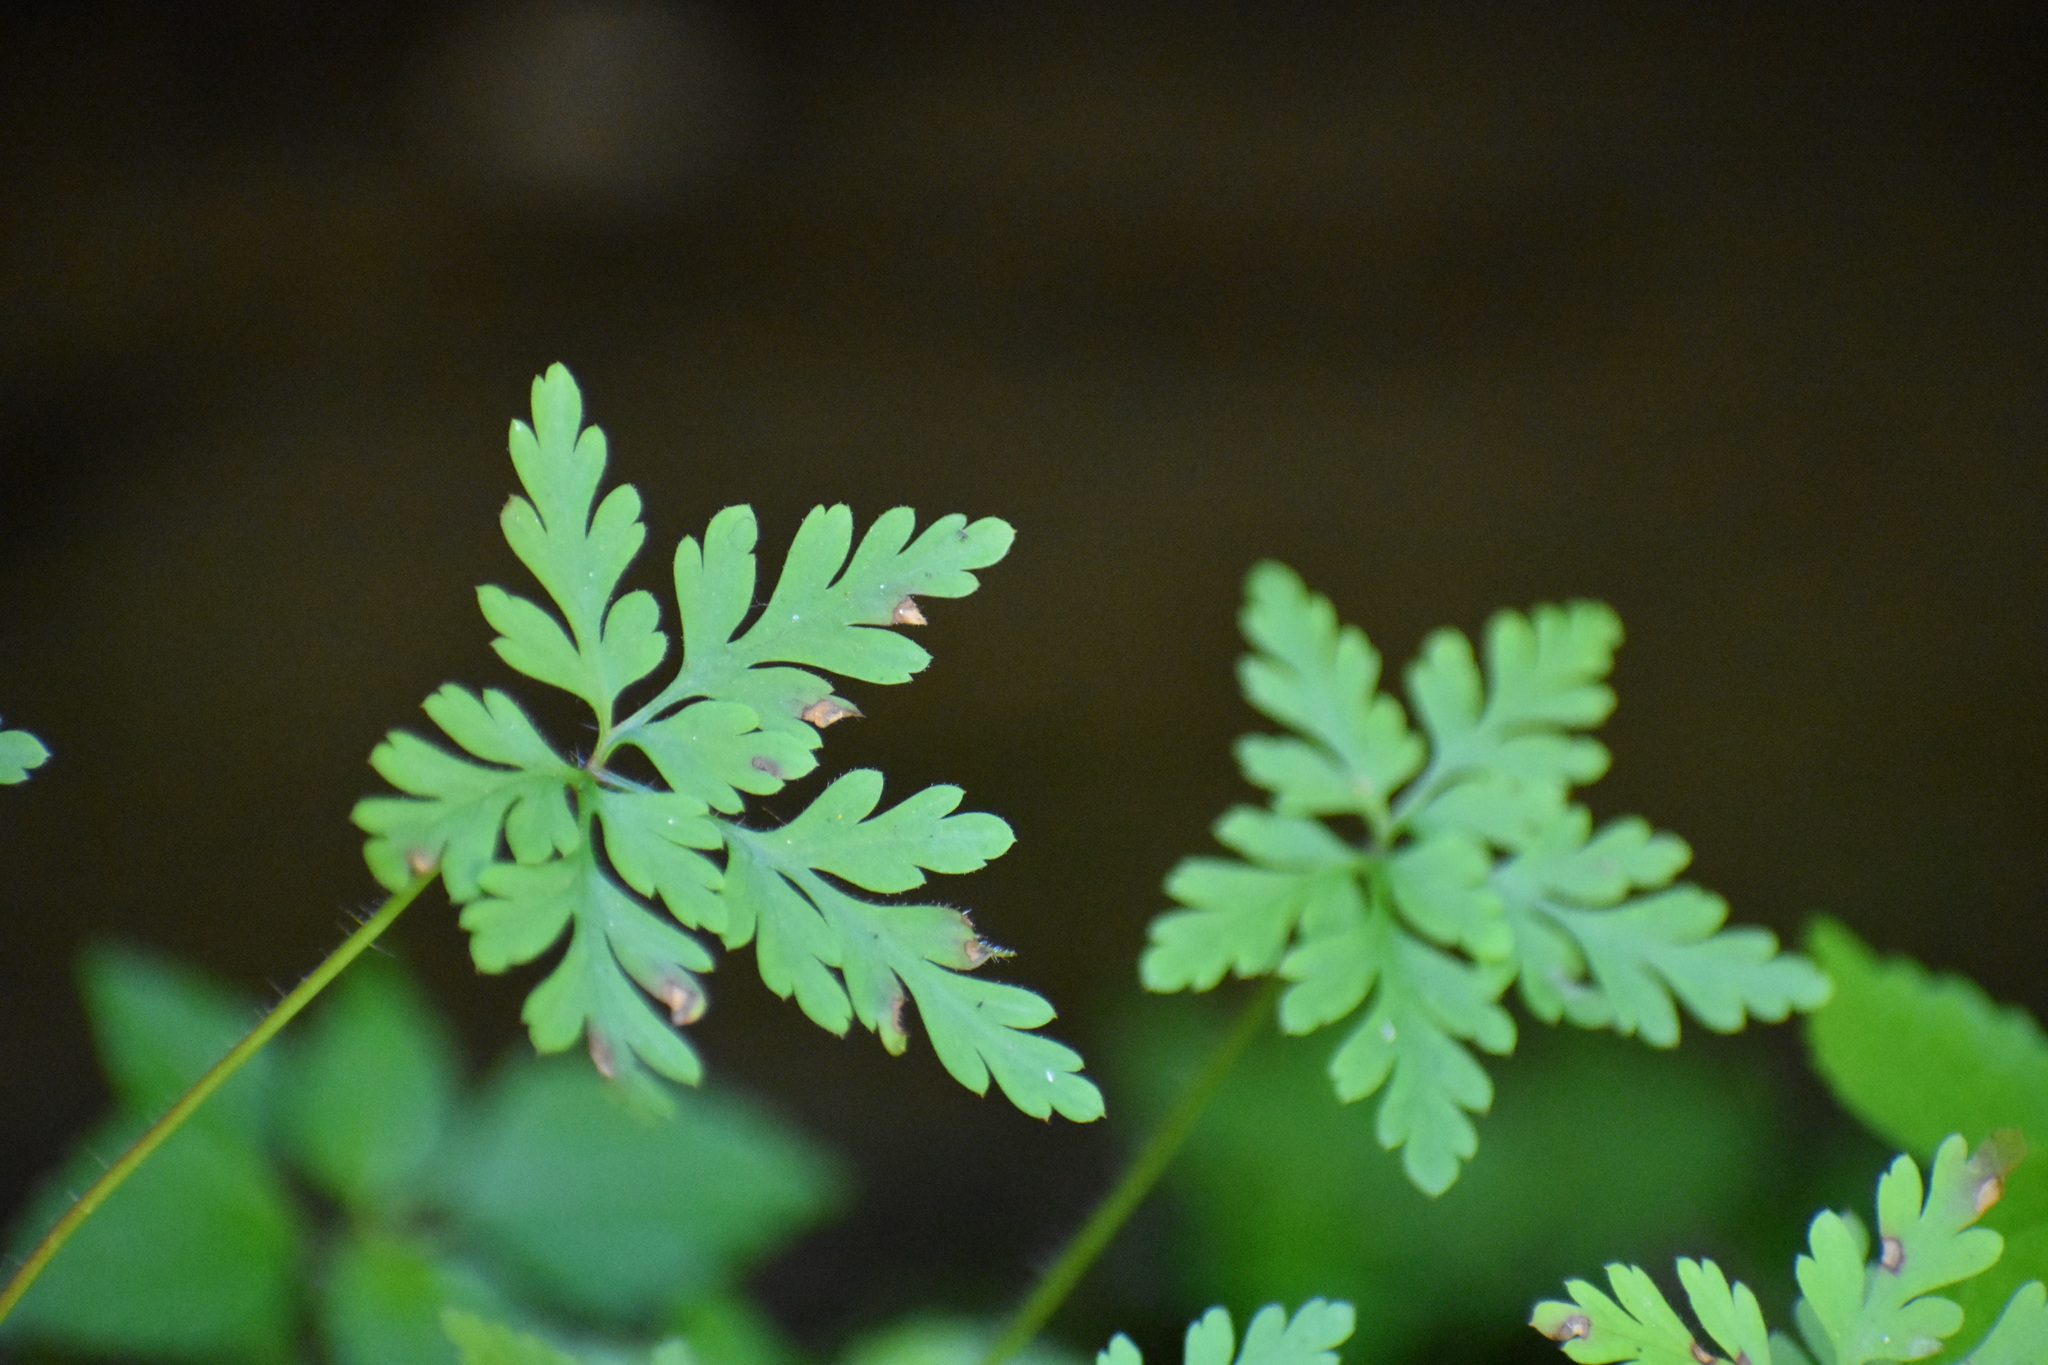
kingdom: Plantae
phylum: Tracheophyta
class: Magnoliopsida
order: Geraniales
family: Geraniaceae
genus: Geranium
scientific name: Geranium robertianum
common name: Herb-robert
